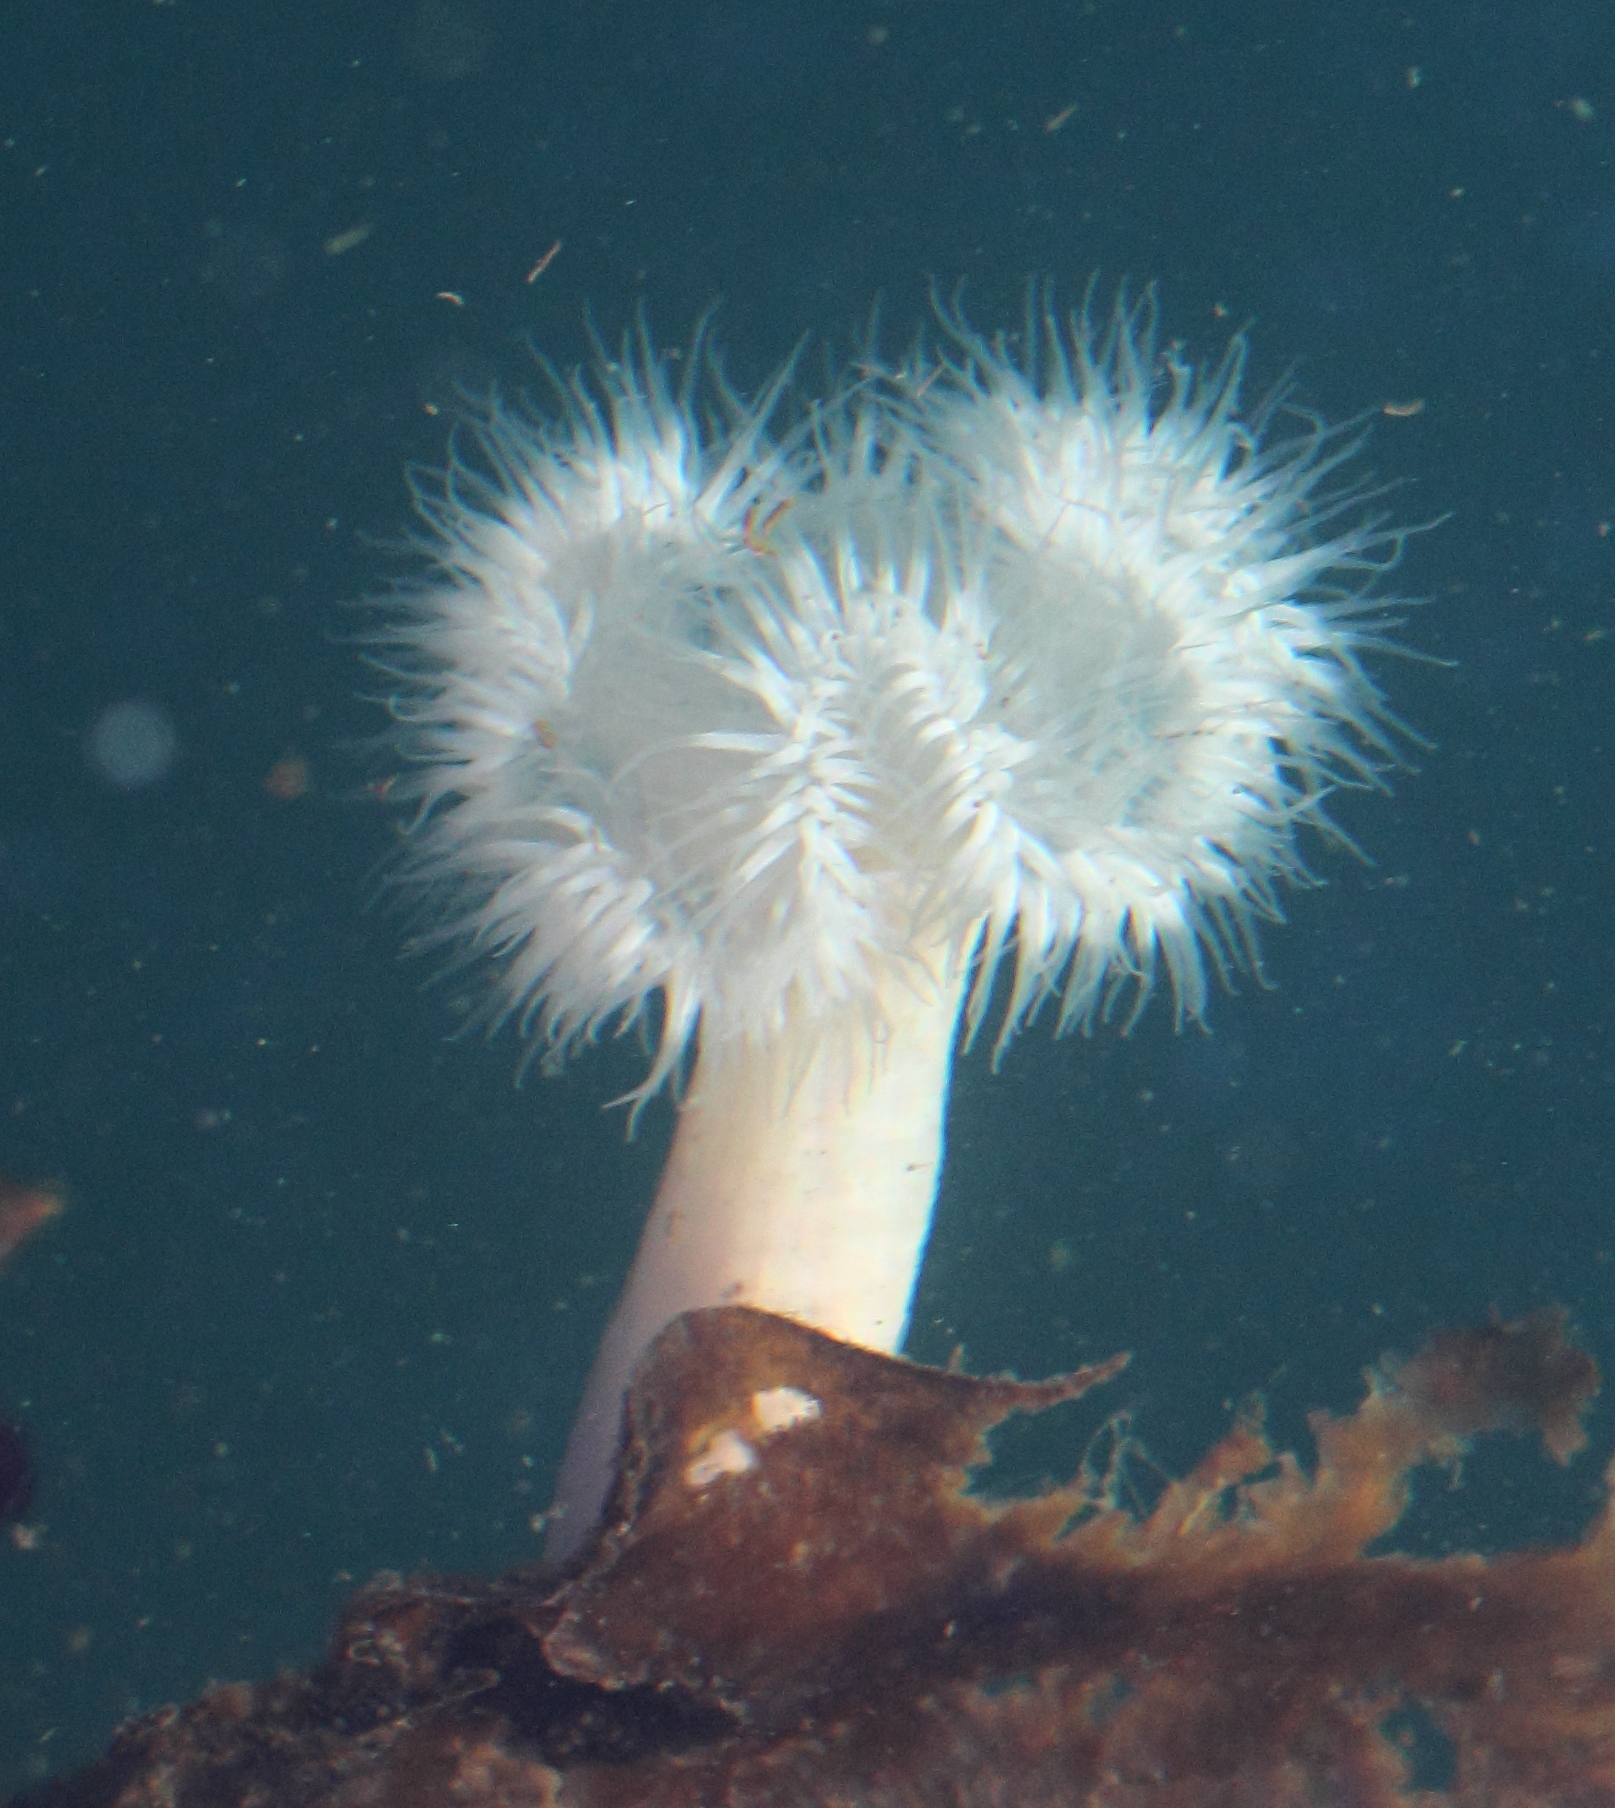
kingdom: Animalia
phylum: Cnidaria
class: Anthozoa
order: Actiniaria
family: Metridiidae
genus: Metridium
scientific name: Metridium farcimen
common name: Gigantic anemone
